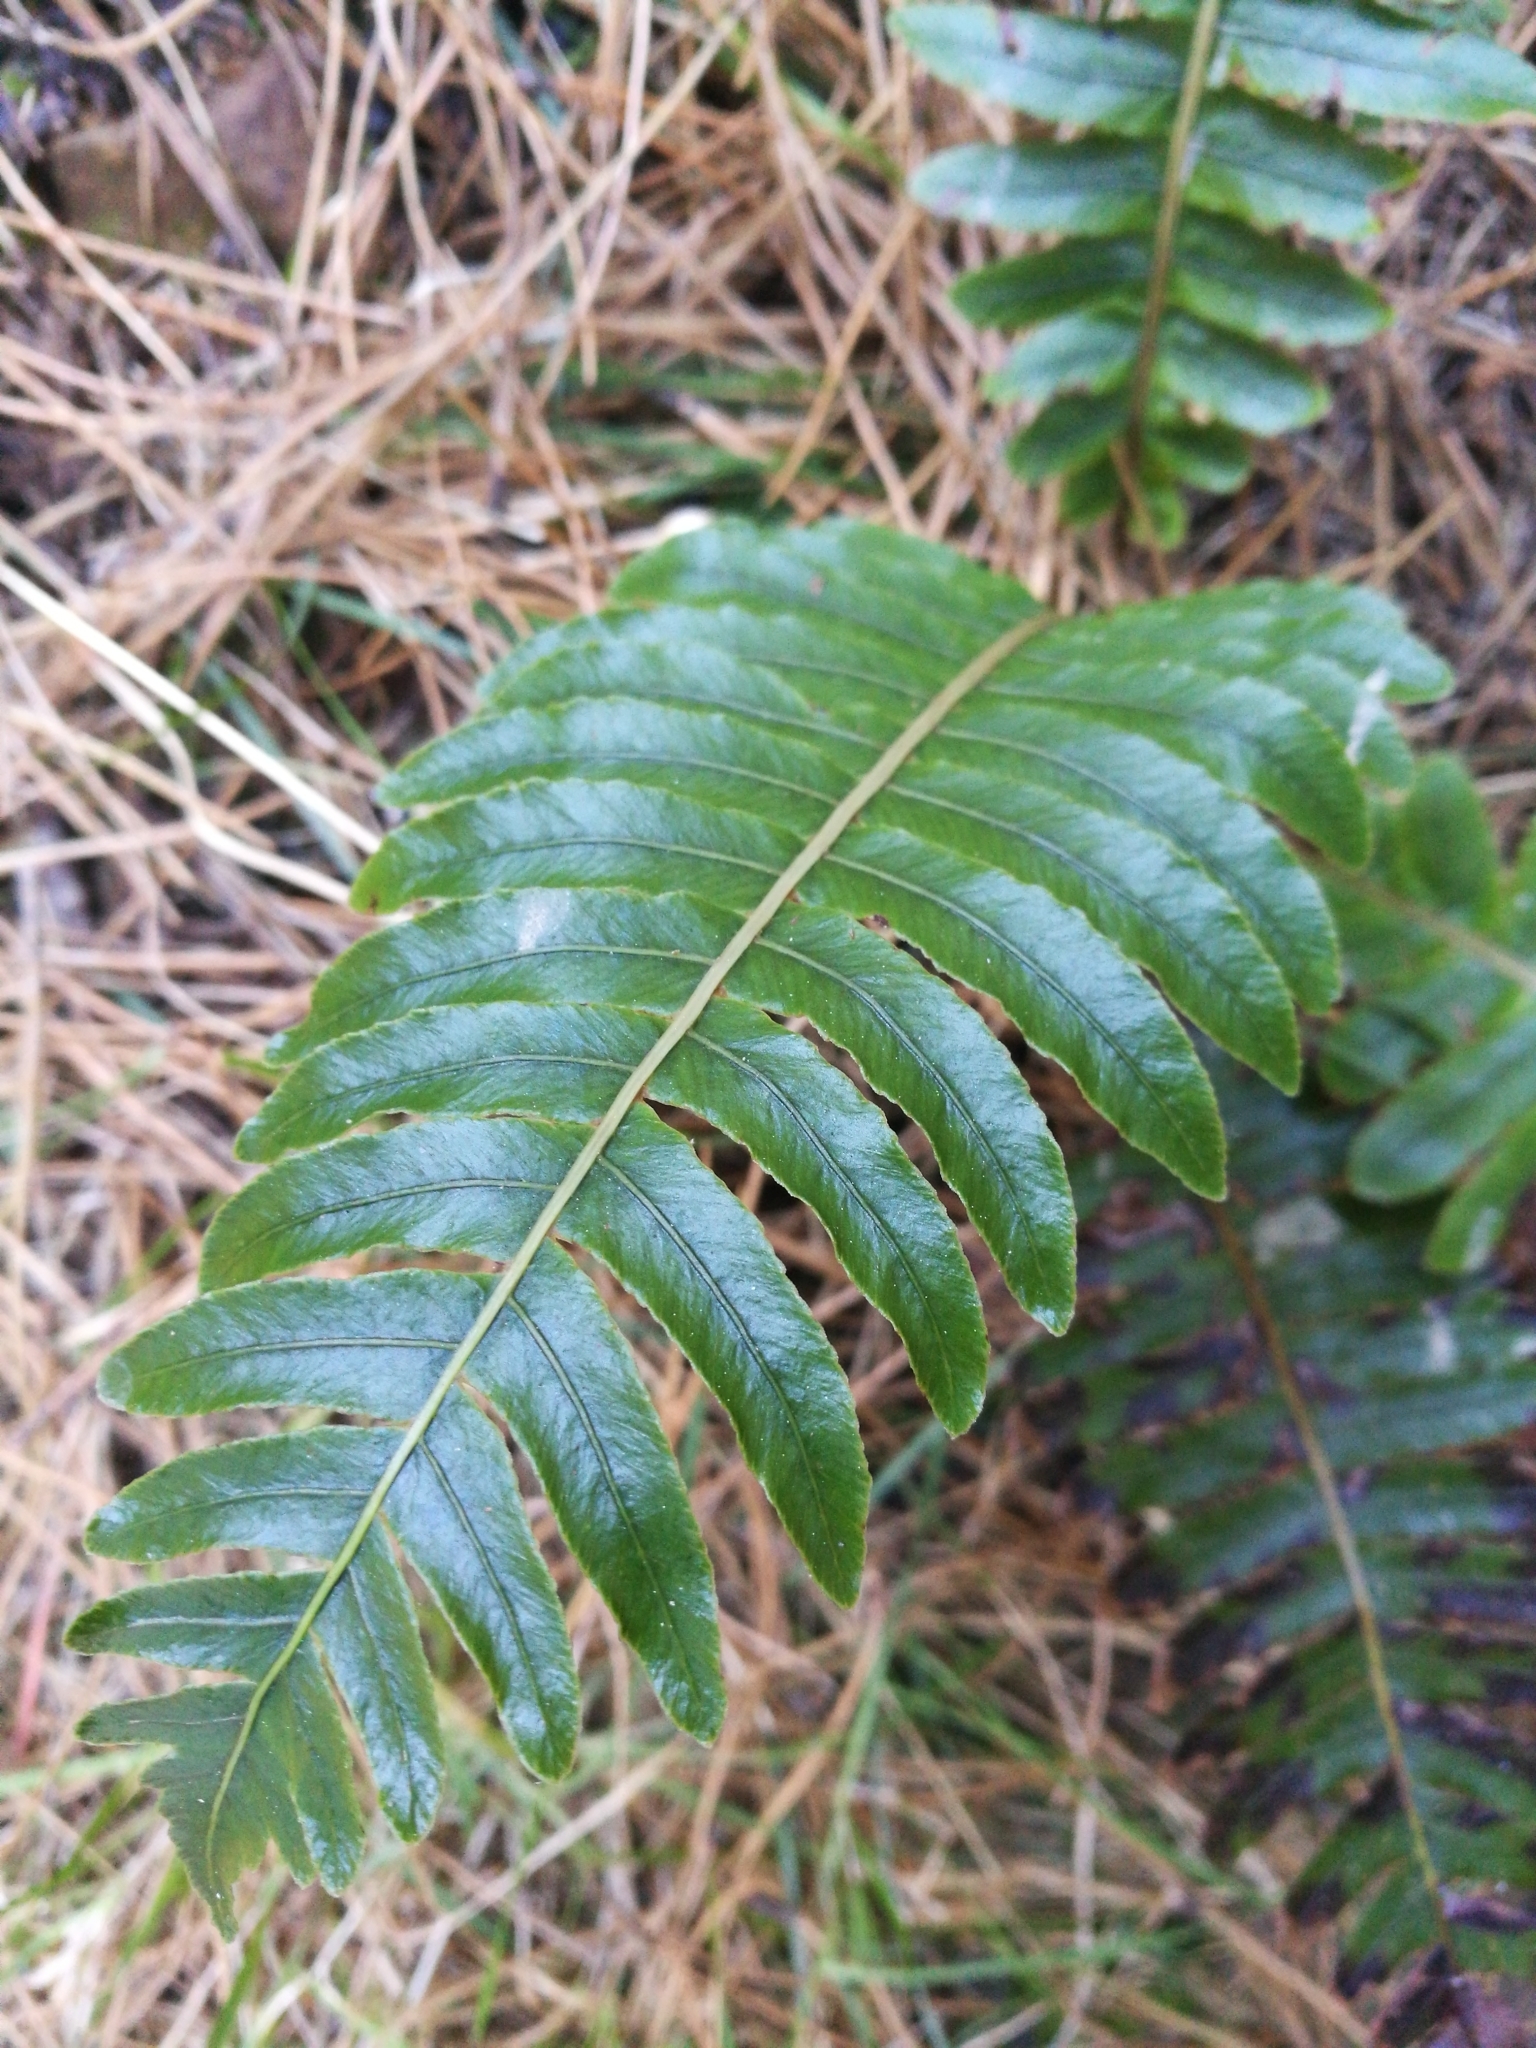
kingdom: Plantae
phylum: Tracheophyta
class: Polypodiopsida
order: Polypodiales
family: Blechnaceae
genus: Lomaria
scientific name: Lomaria discolor
